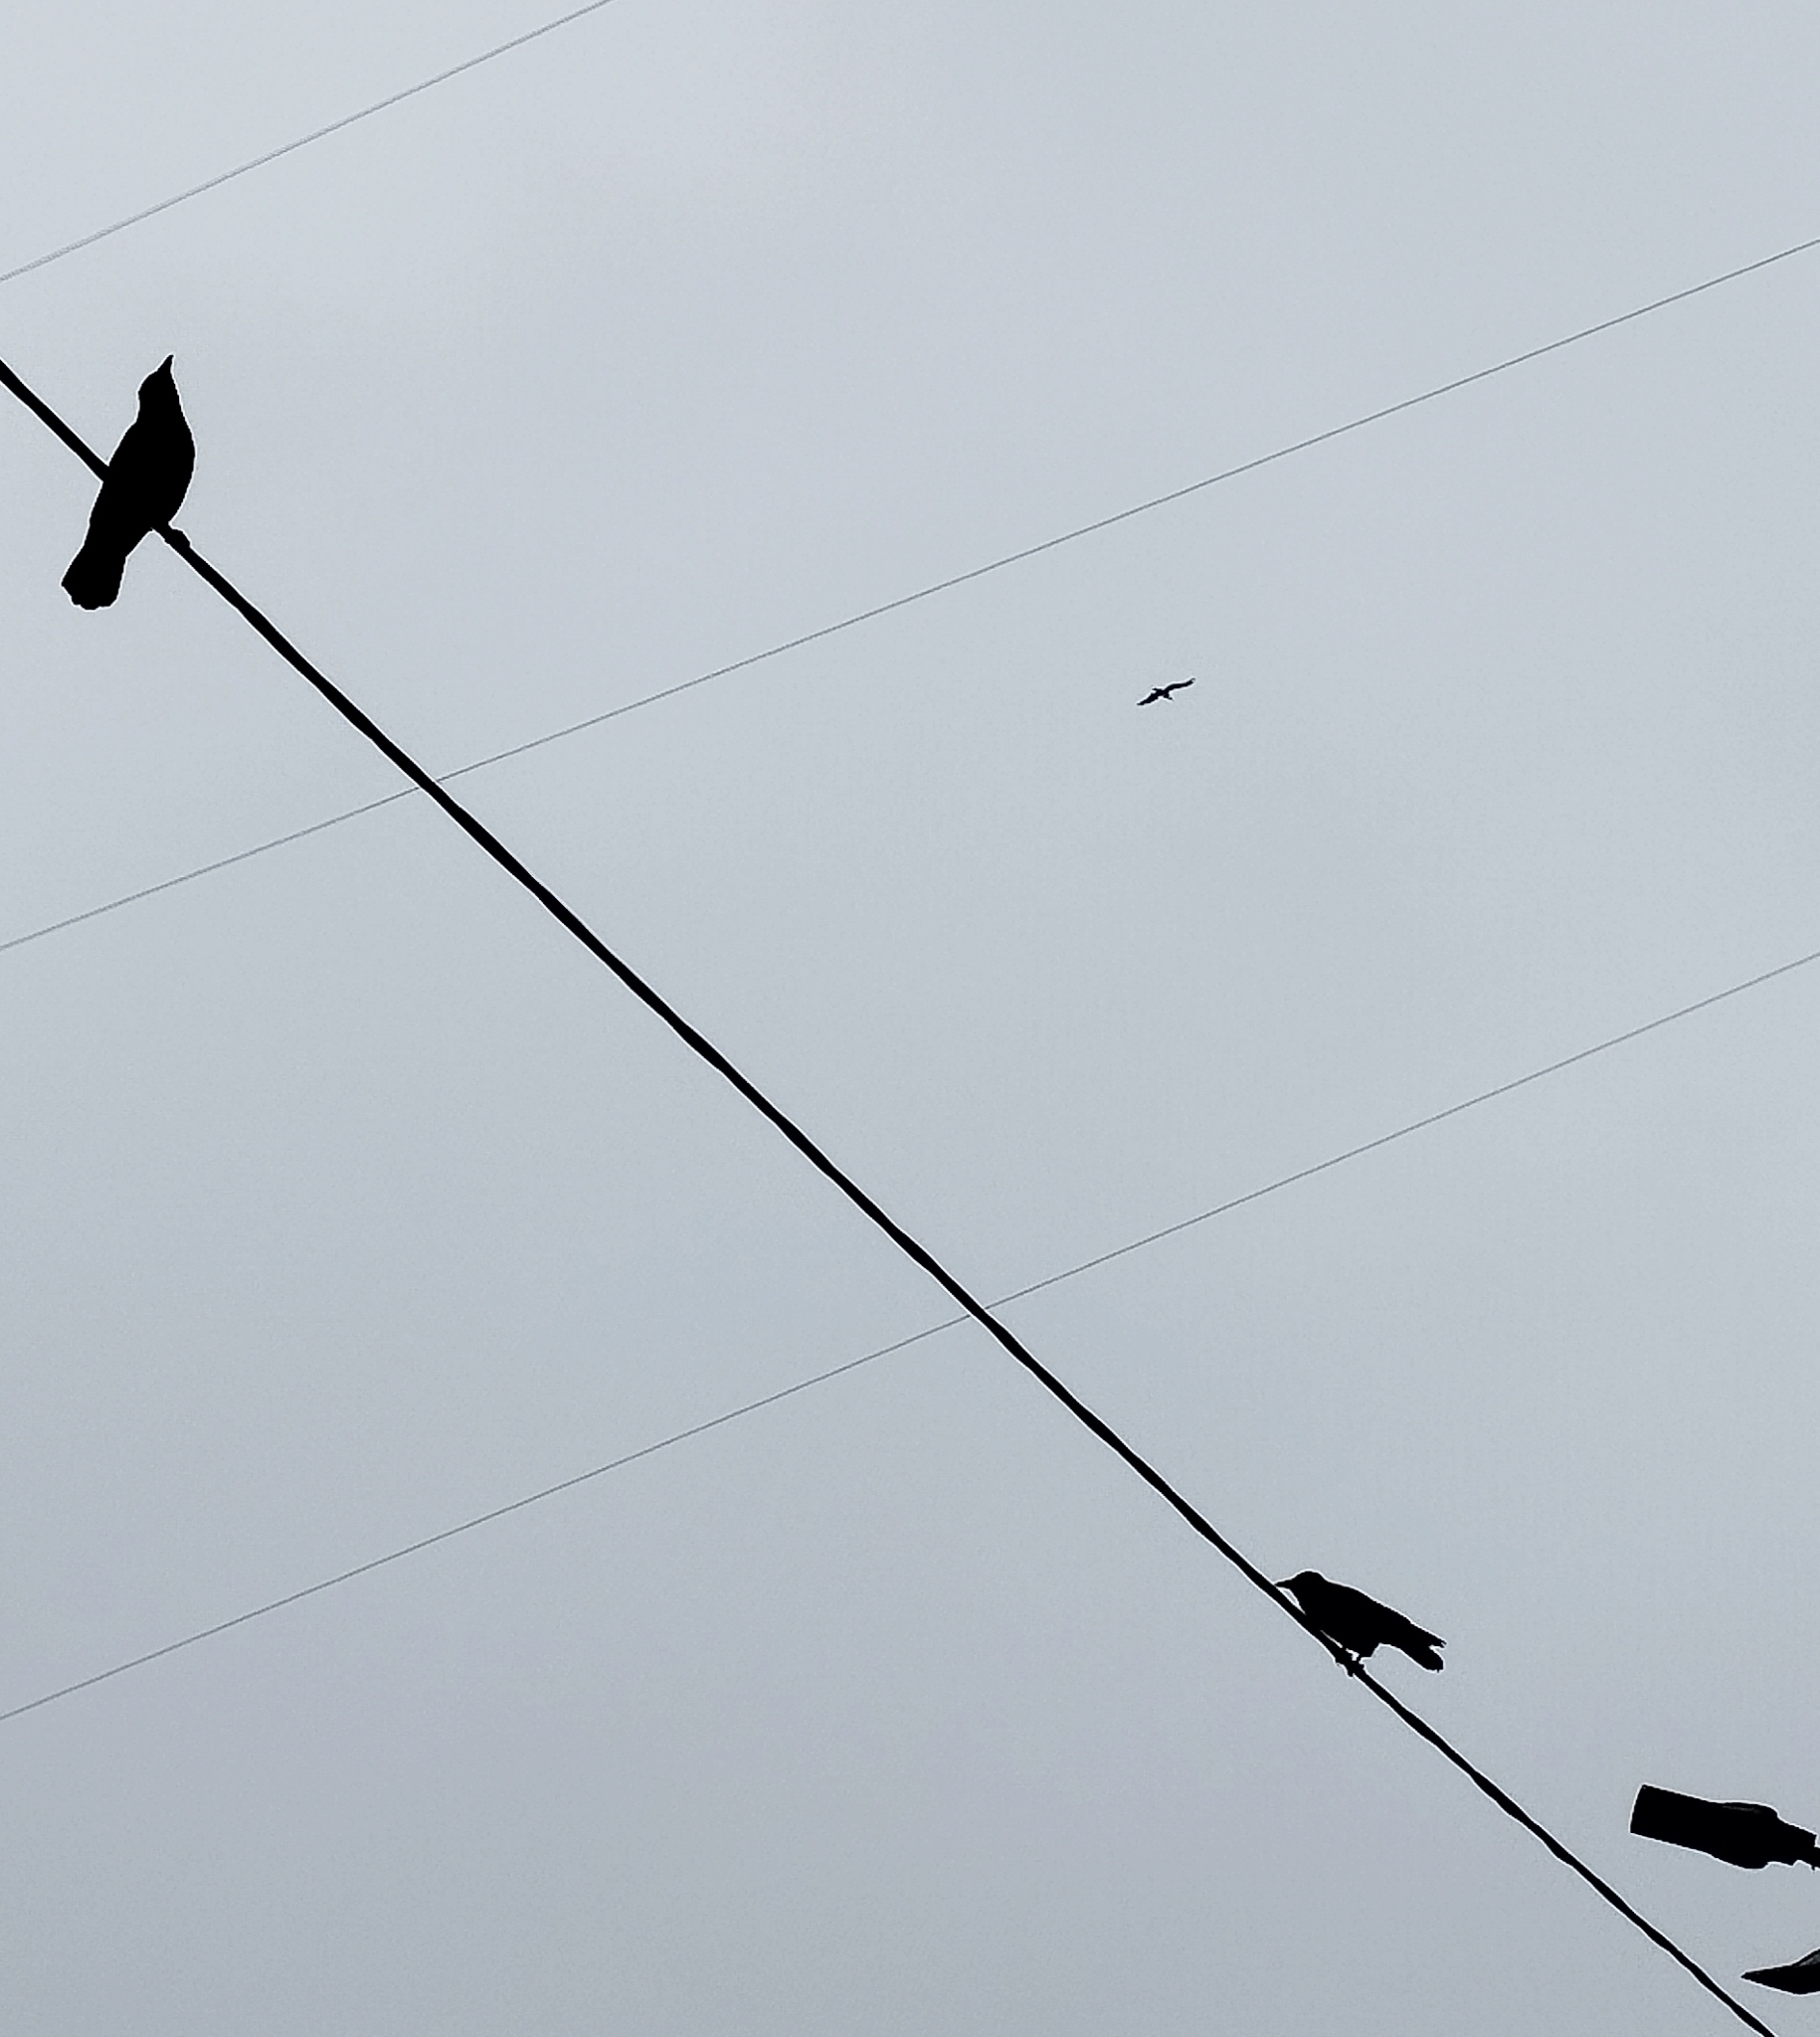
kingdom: Animalia
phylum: Chordata
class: Aves
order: Passeriformes
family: Corvidae
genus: Corvus
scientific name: Corvus cornix
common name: Hooded crow
